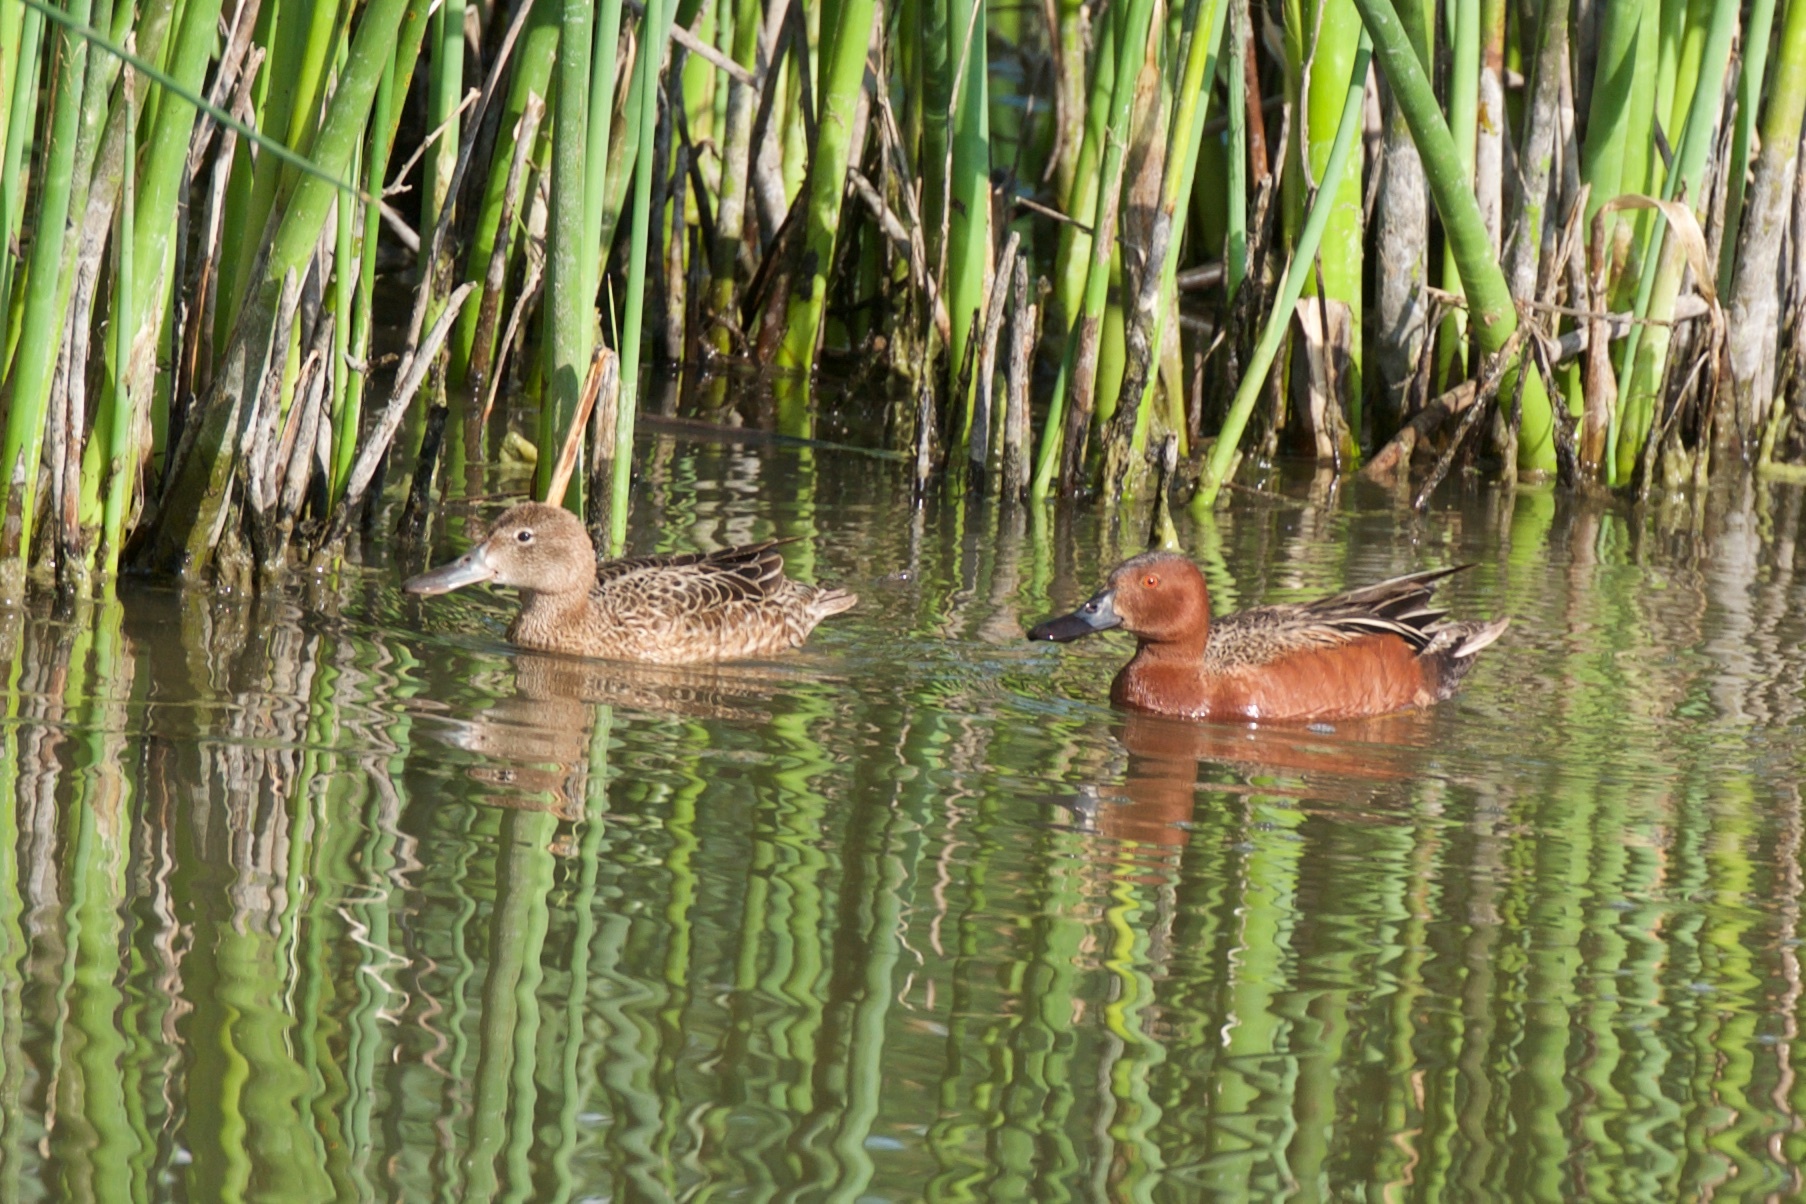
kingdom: Animalia
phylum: Chordata
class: Aves
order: Anseriformes
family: Anatidae
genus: Spatula
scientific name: Spatula cyanoptera
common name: Cinnamon teal
